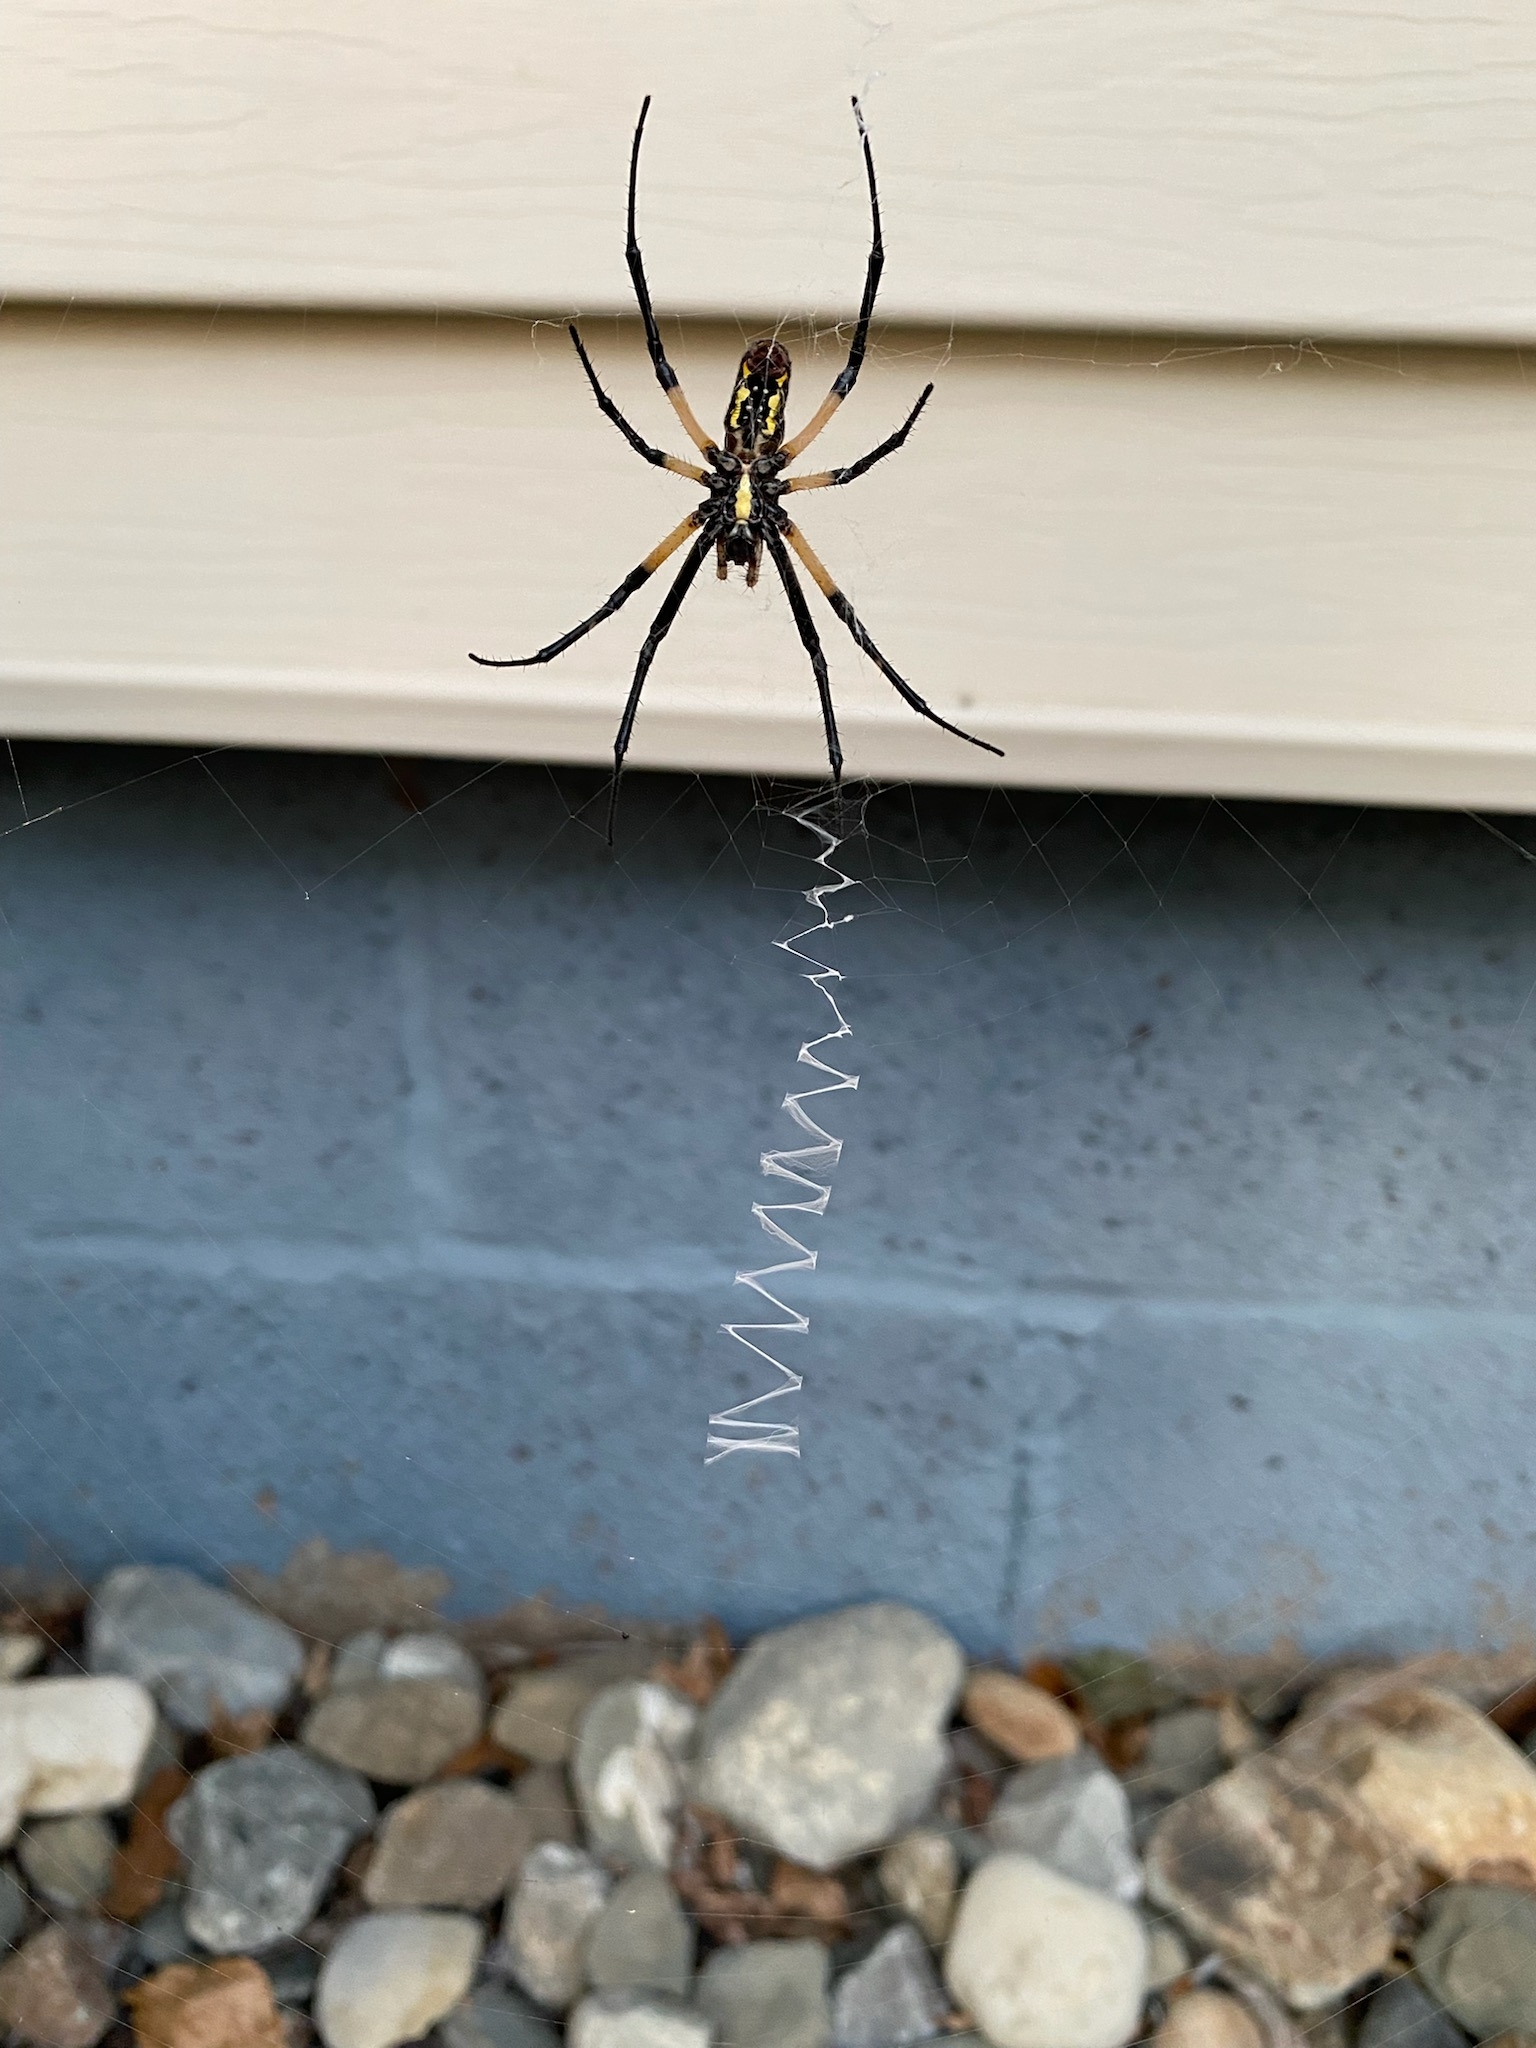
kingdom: Animalia
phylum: Arthropoda
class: Arachnida
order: Araneae
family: Araneidae
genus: Argiope
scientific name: Argiope aurantia
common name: Orb weavers
